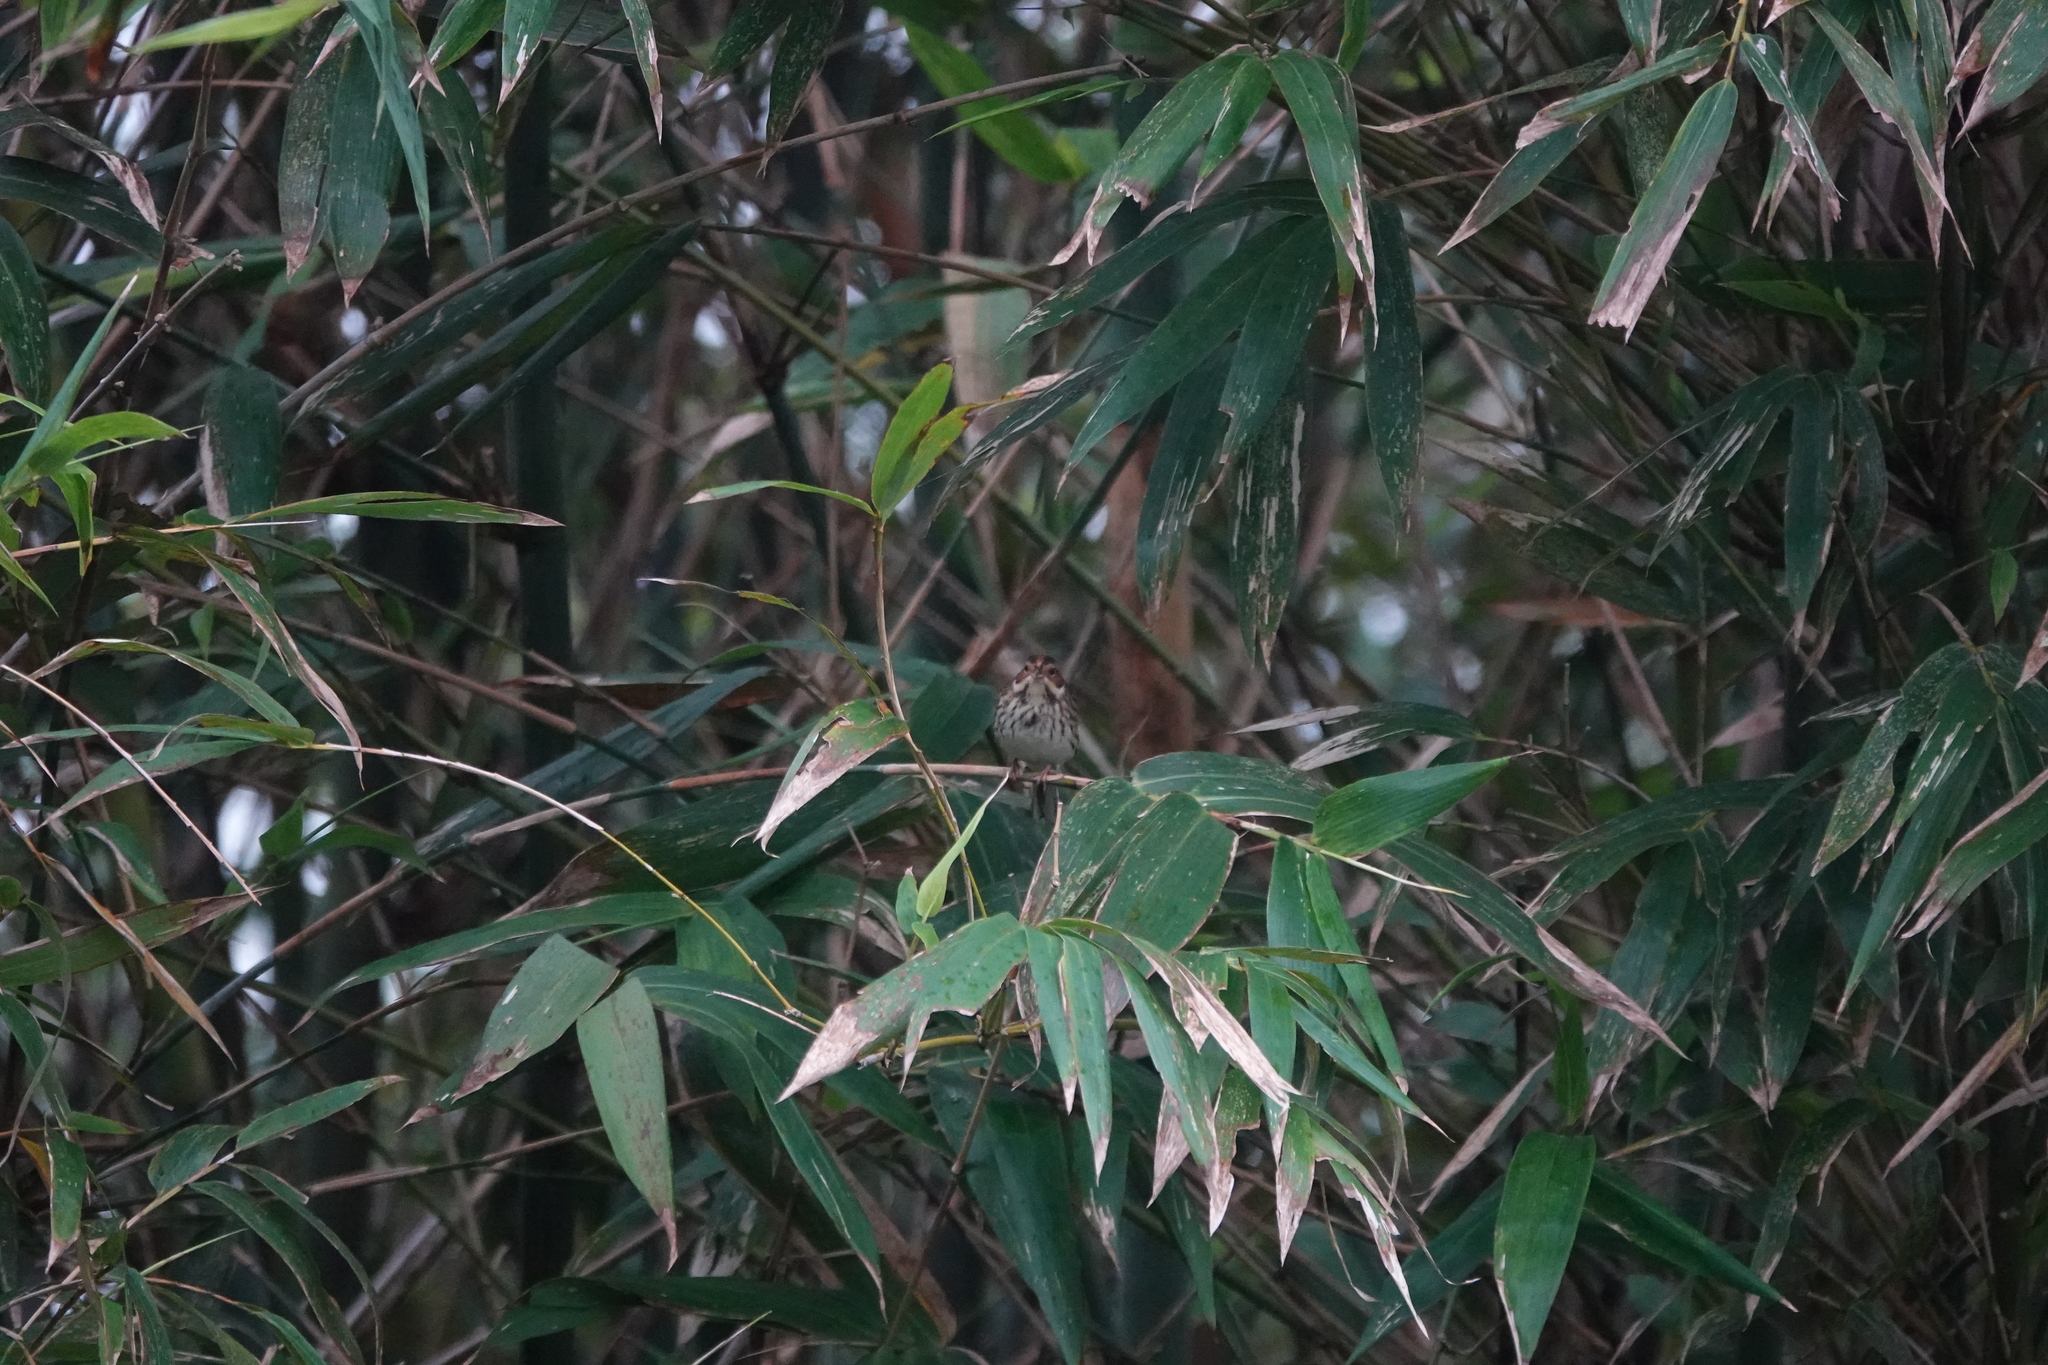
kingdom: Animalia
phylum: Chordata
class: Aves
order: Passeriformes
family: Emberizidae
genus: Emberiza
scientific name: Emberiza pusilla
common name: Little bunting
